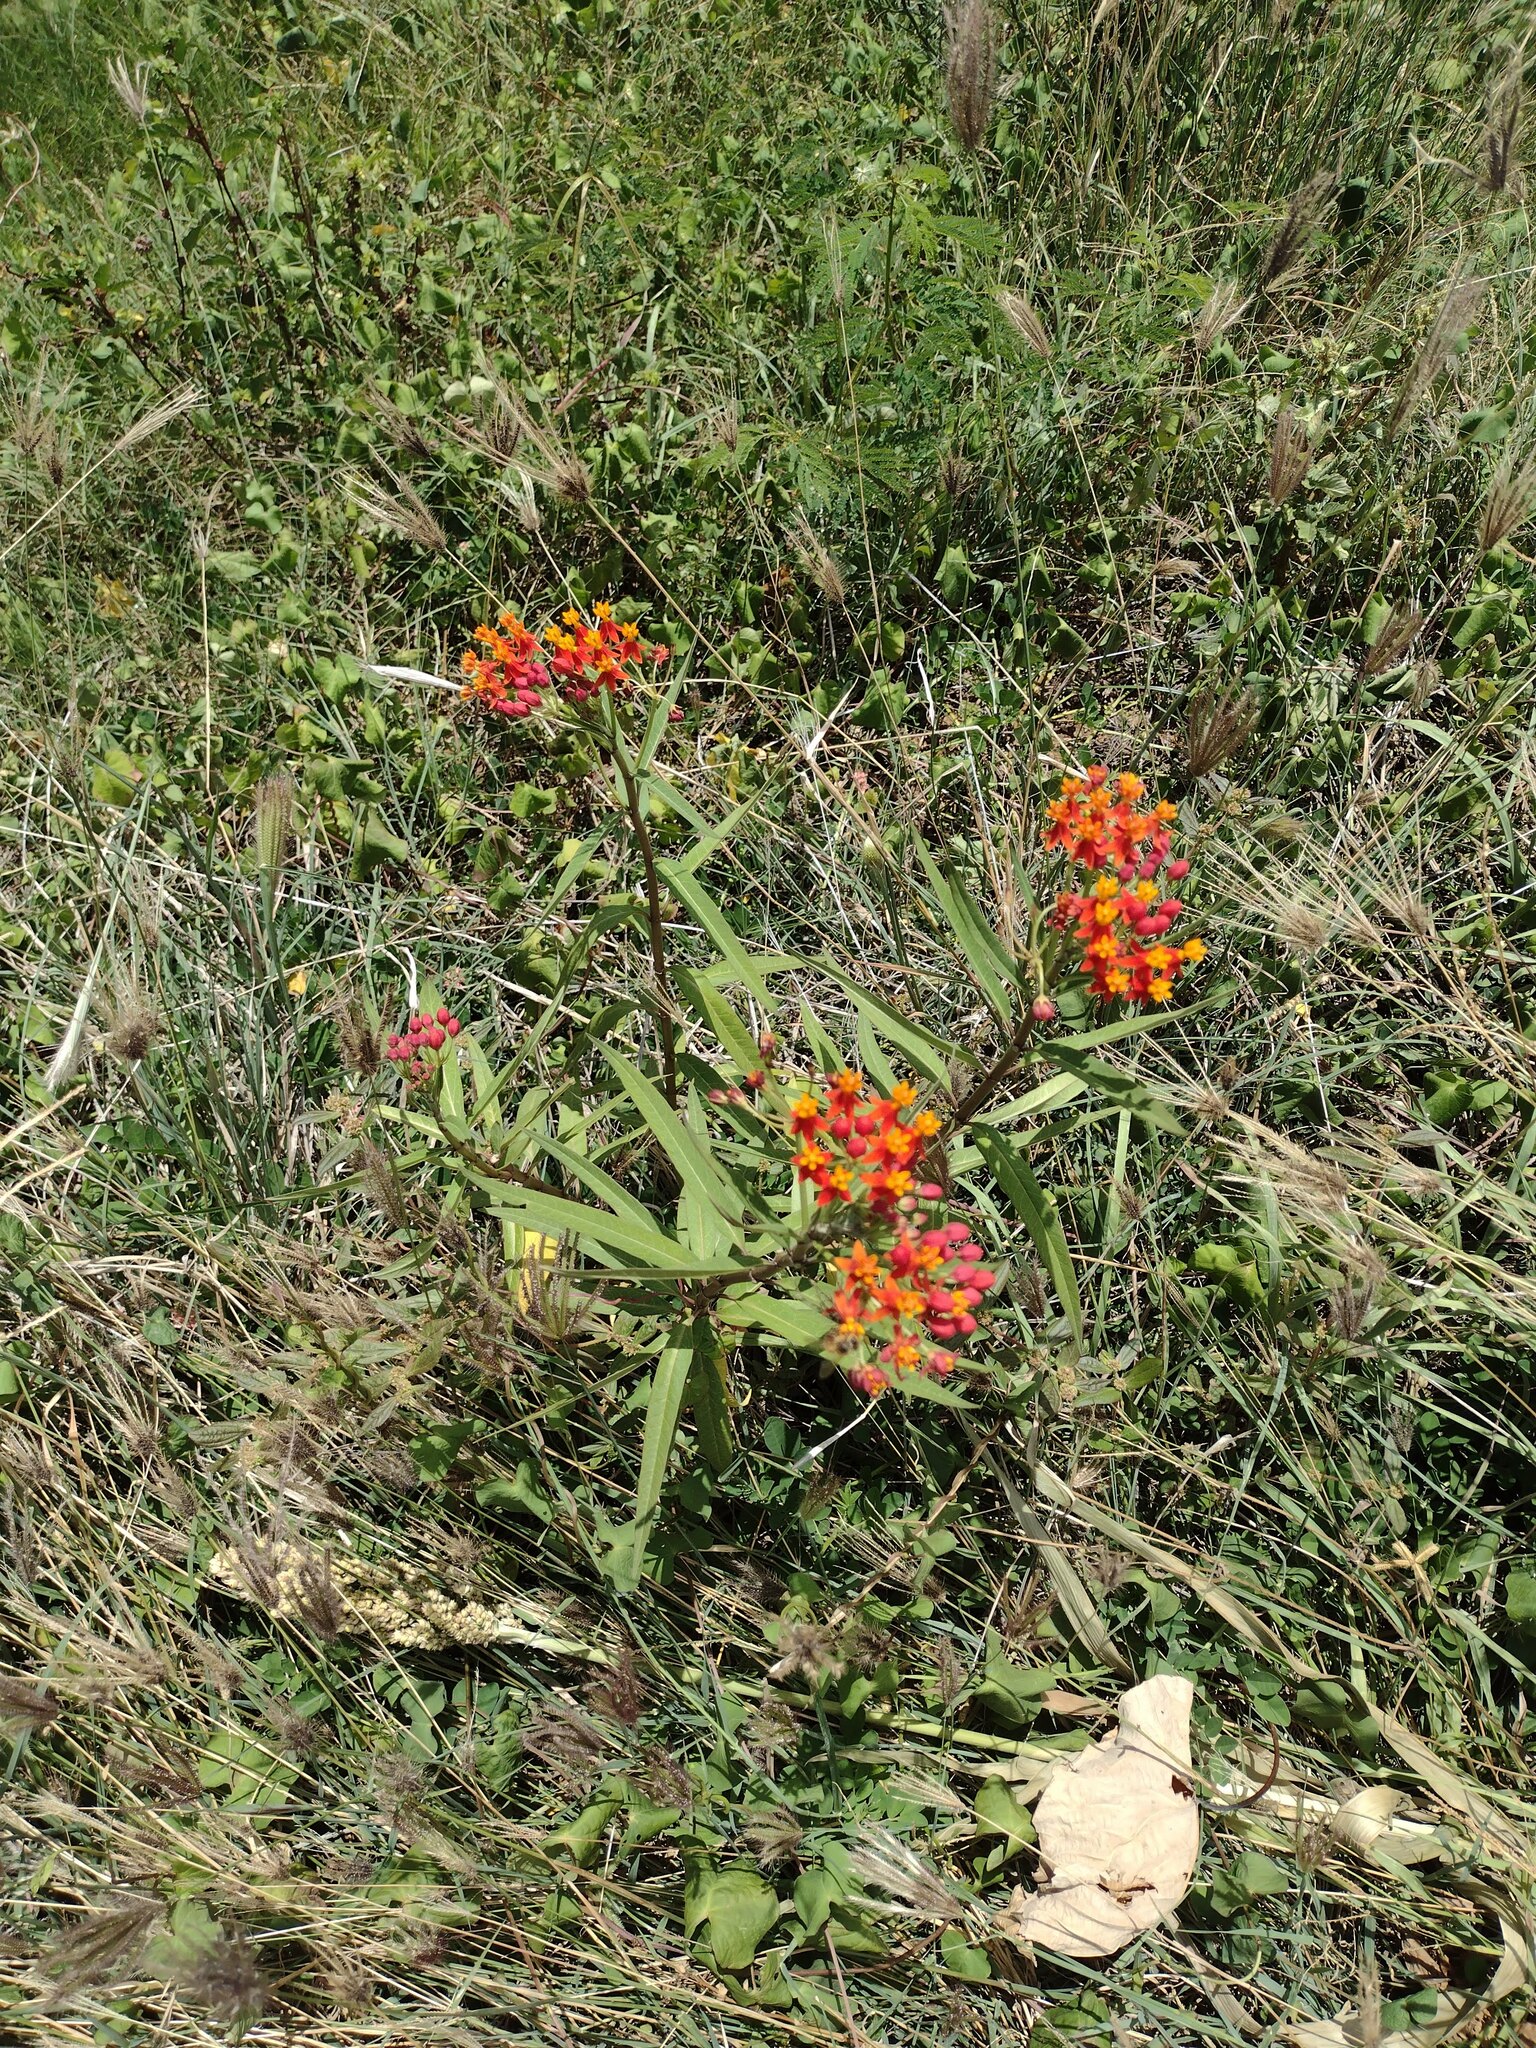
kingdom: Plantae
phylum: Tracheophyta
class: Magnoliopsida
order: Gentianales
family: Apocynaceae
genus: Asclepias
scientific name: Asclepias curassavica
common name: Bloodflower
